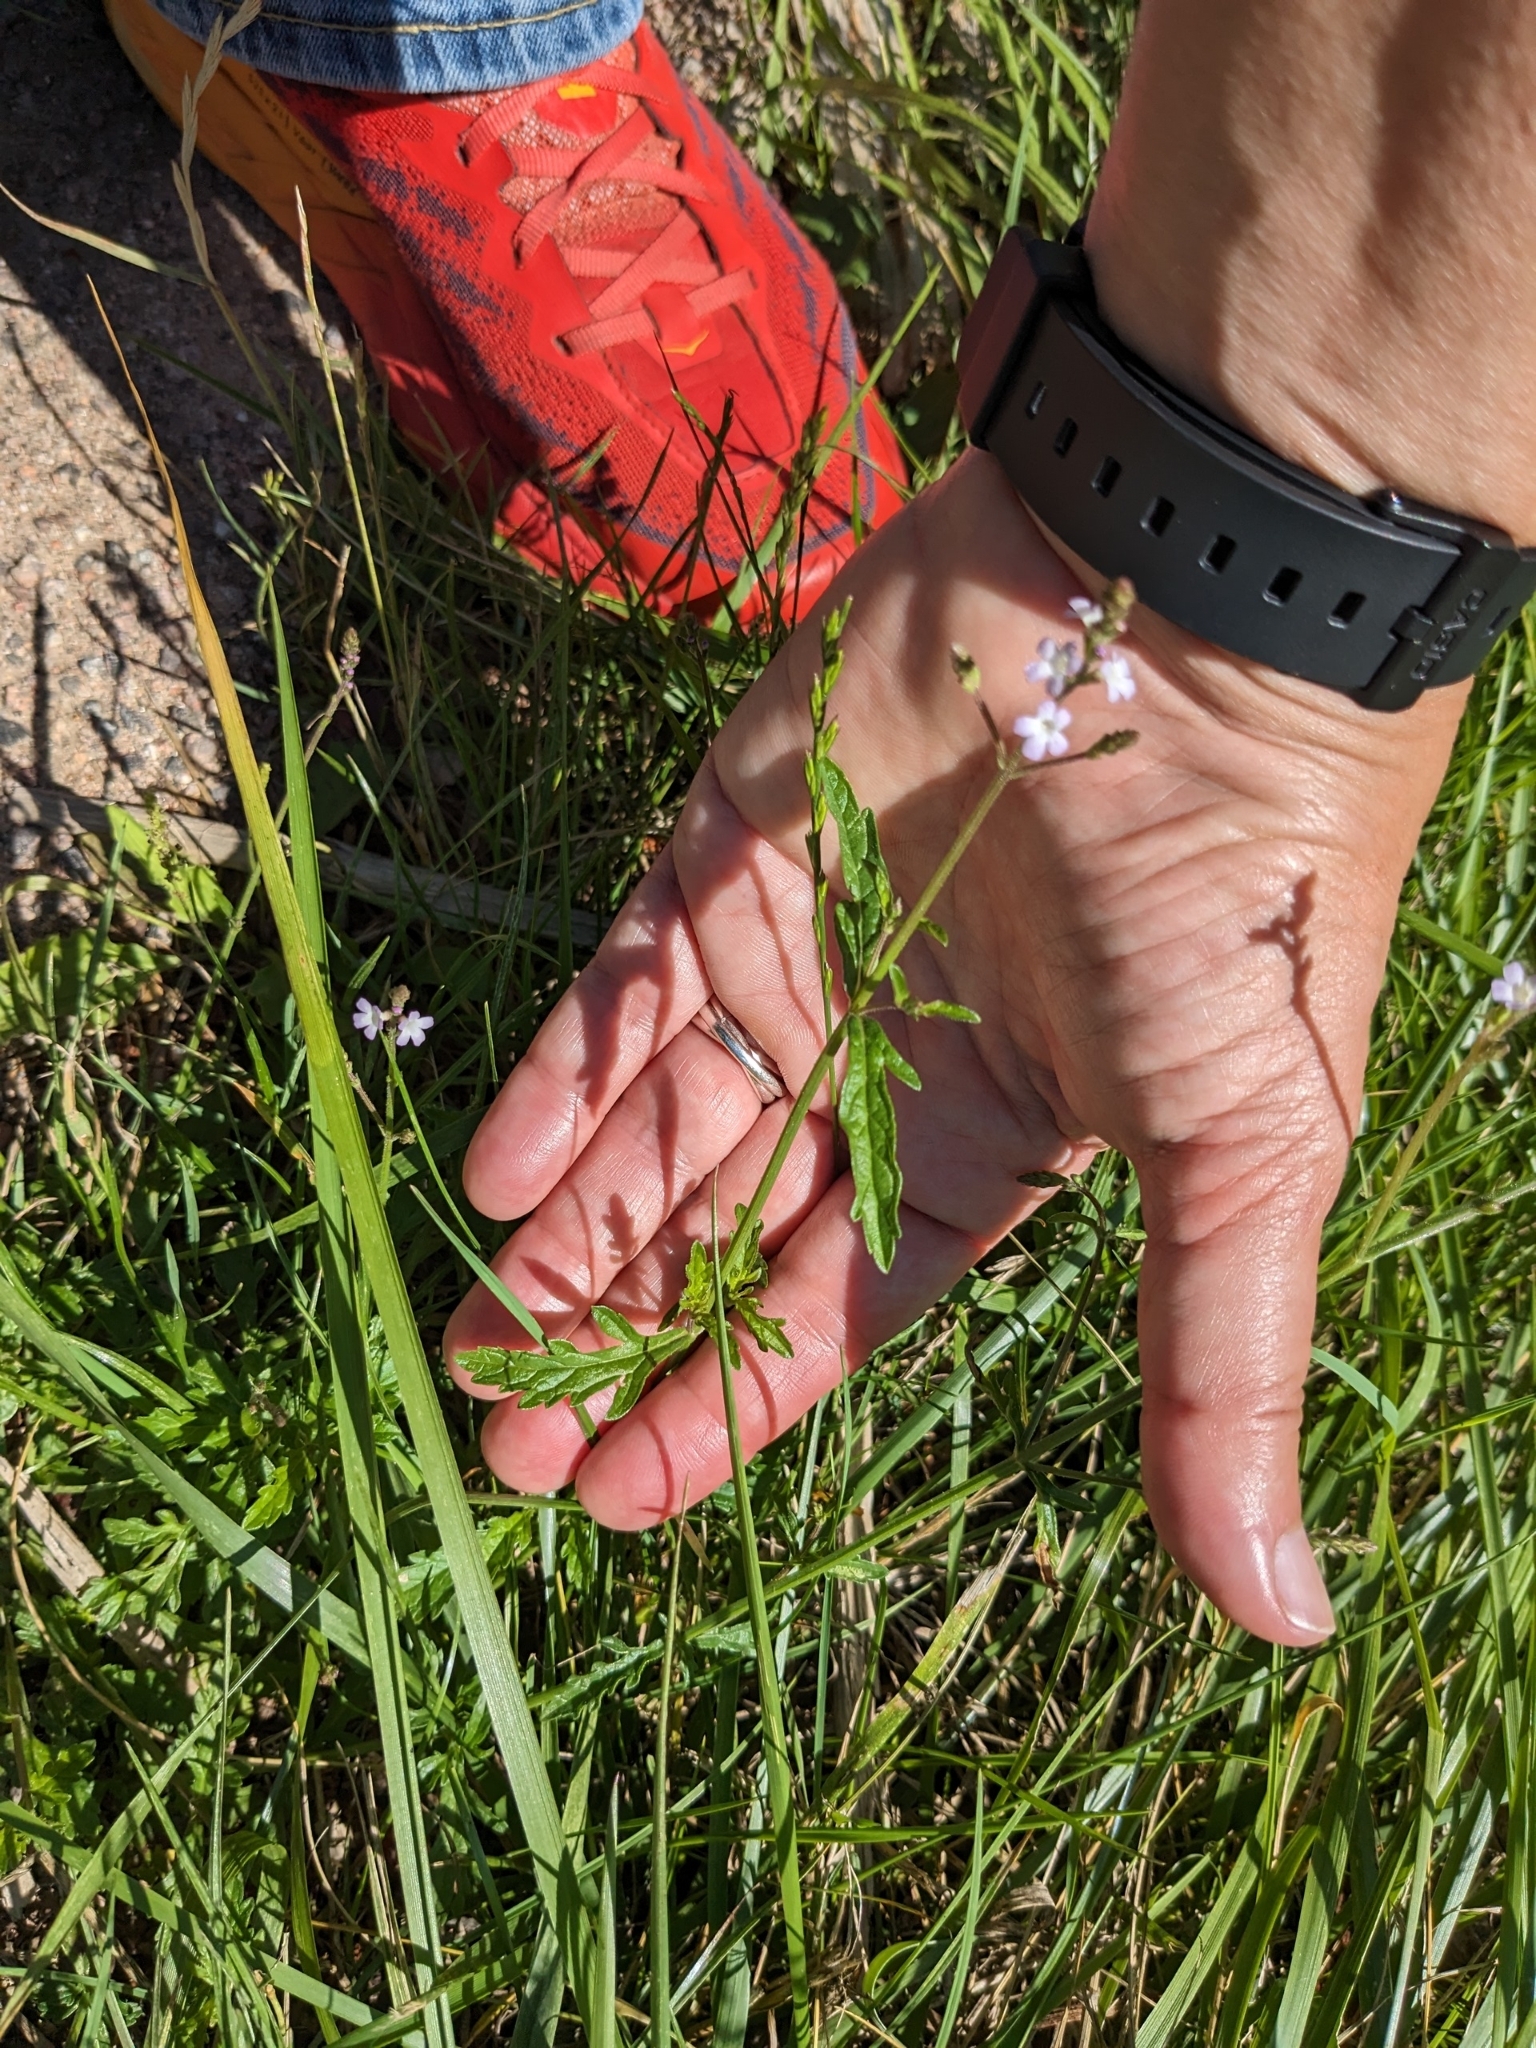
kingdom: Plantae
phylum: Tracheophyta
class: Magnoliopsida
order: Lamiales
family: Verbenaceae
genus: Verbena
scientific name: Verbena officinalis
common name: Vervain
